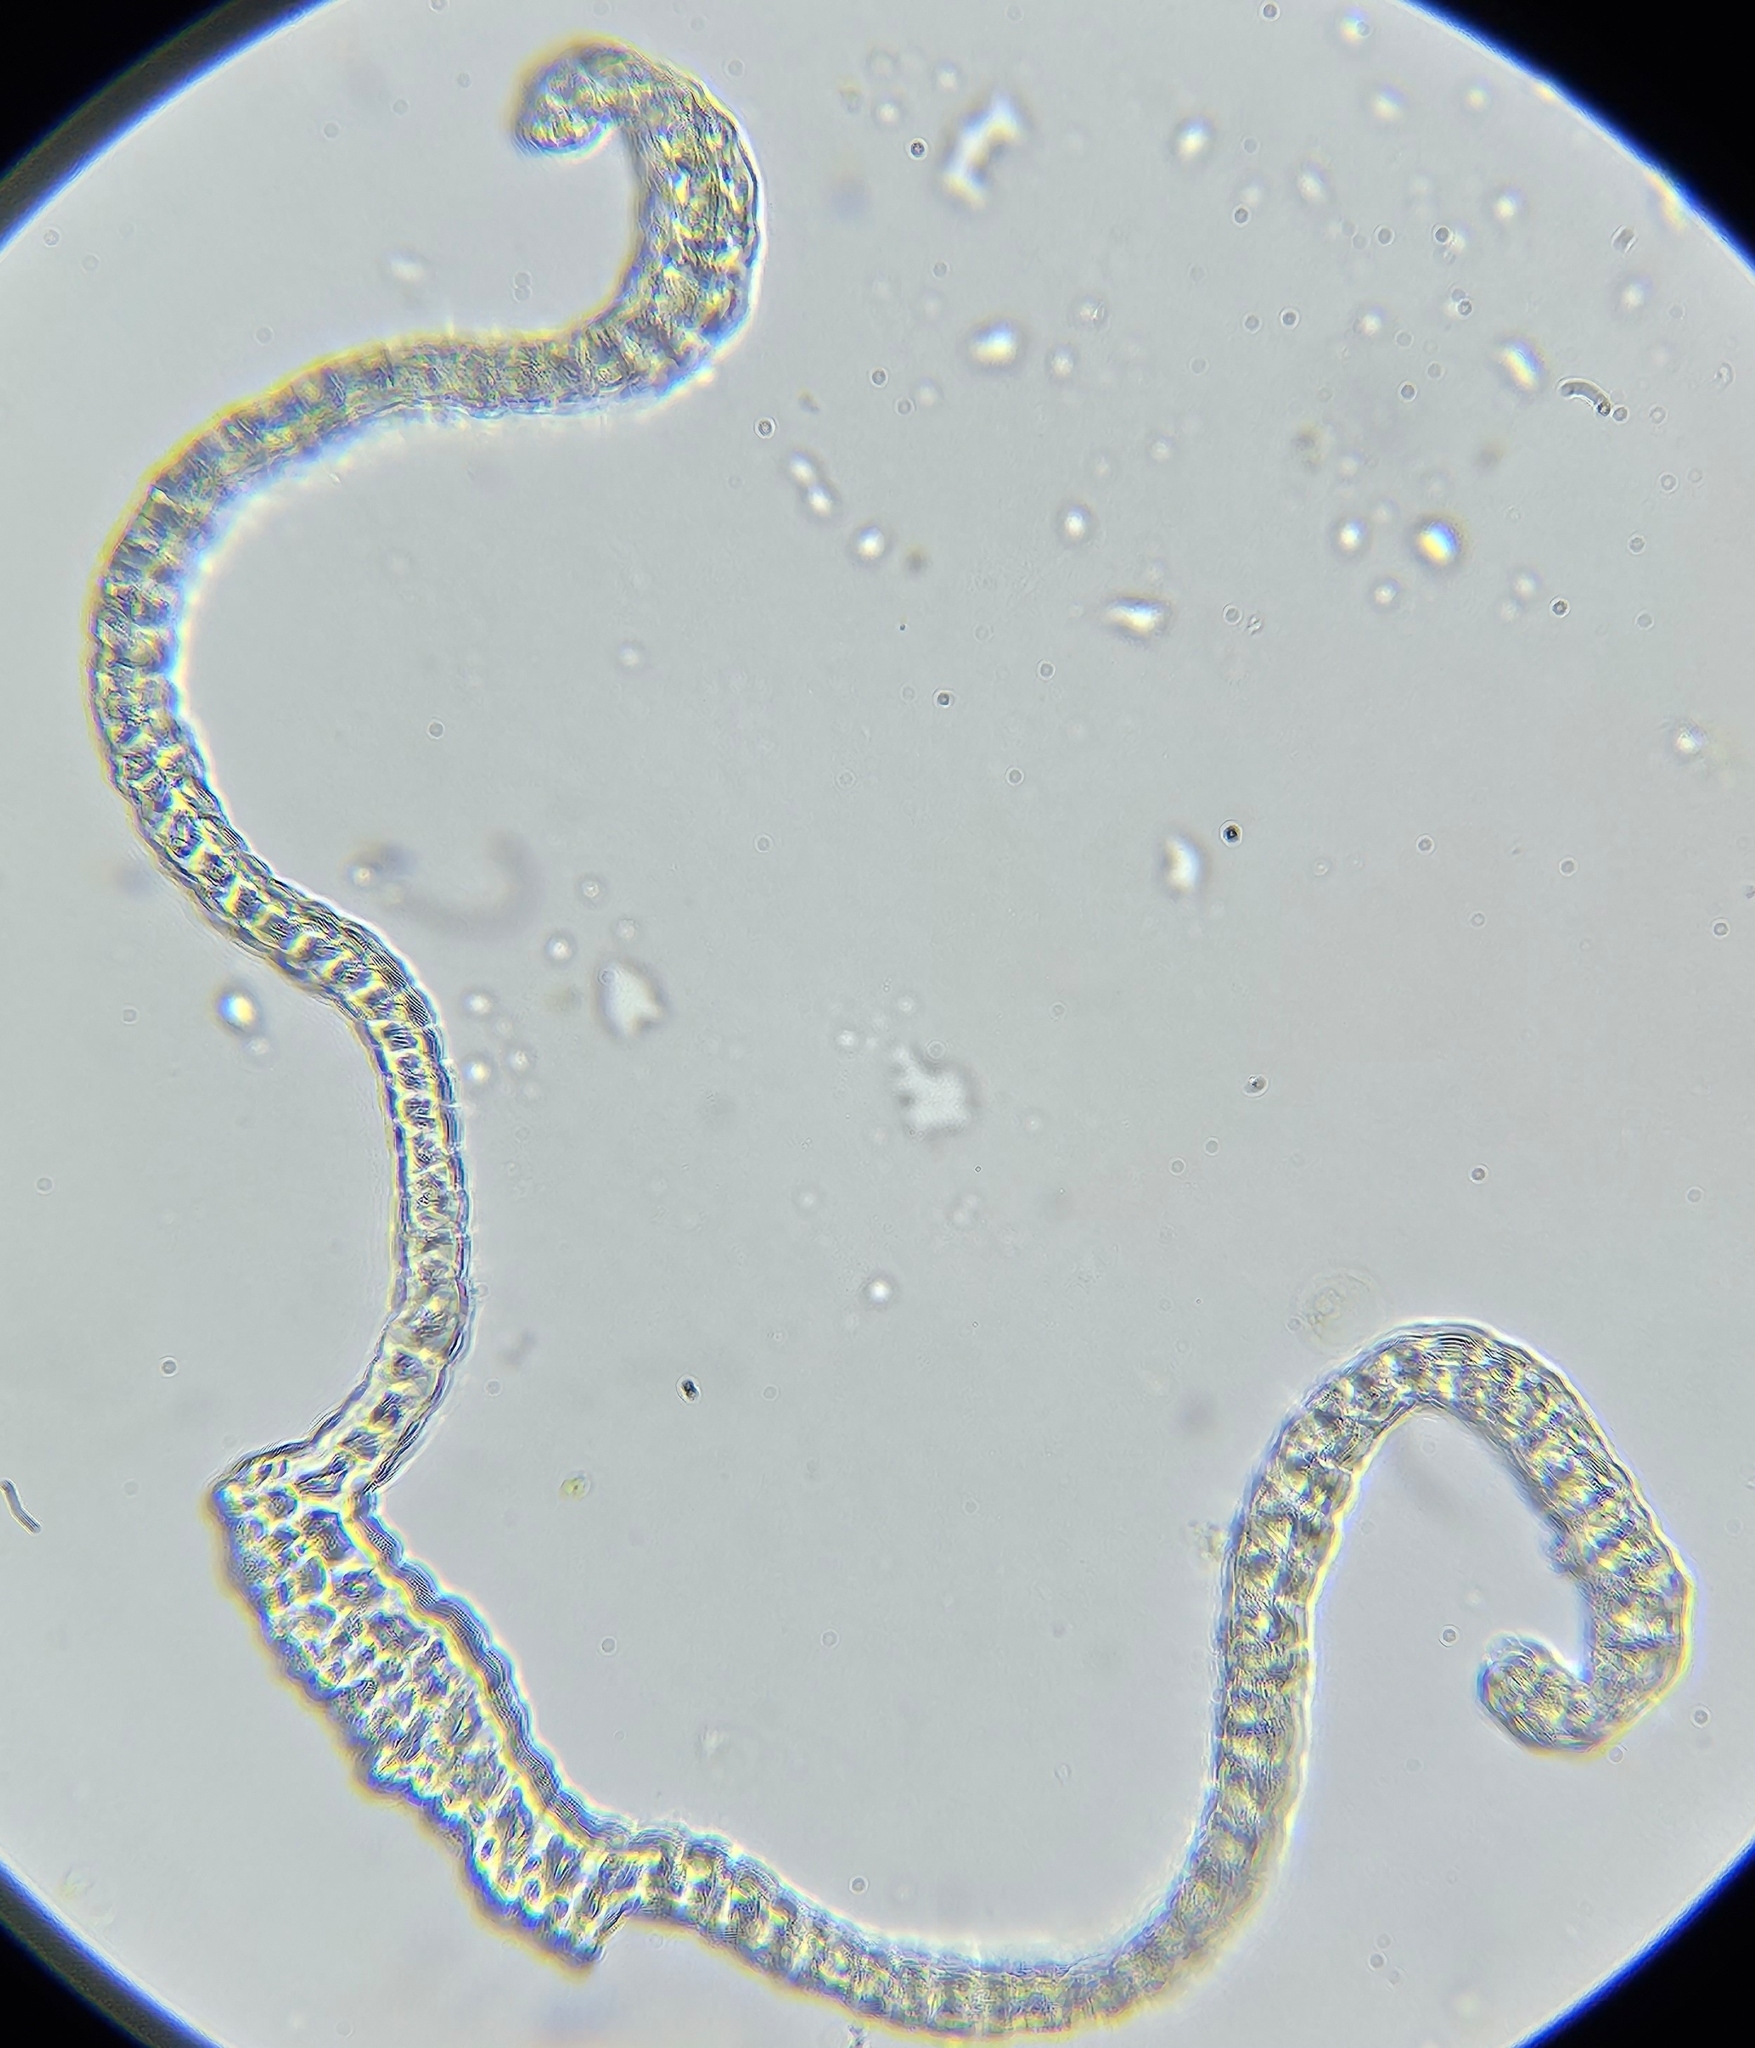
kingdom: Plantae
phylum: Bryophyta
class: Bryopsida
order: Grimmiales
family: Grimmiaceae
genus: Bucklandiella
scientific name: Bucklandiella heterosticha
